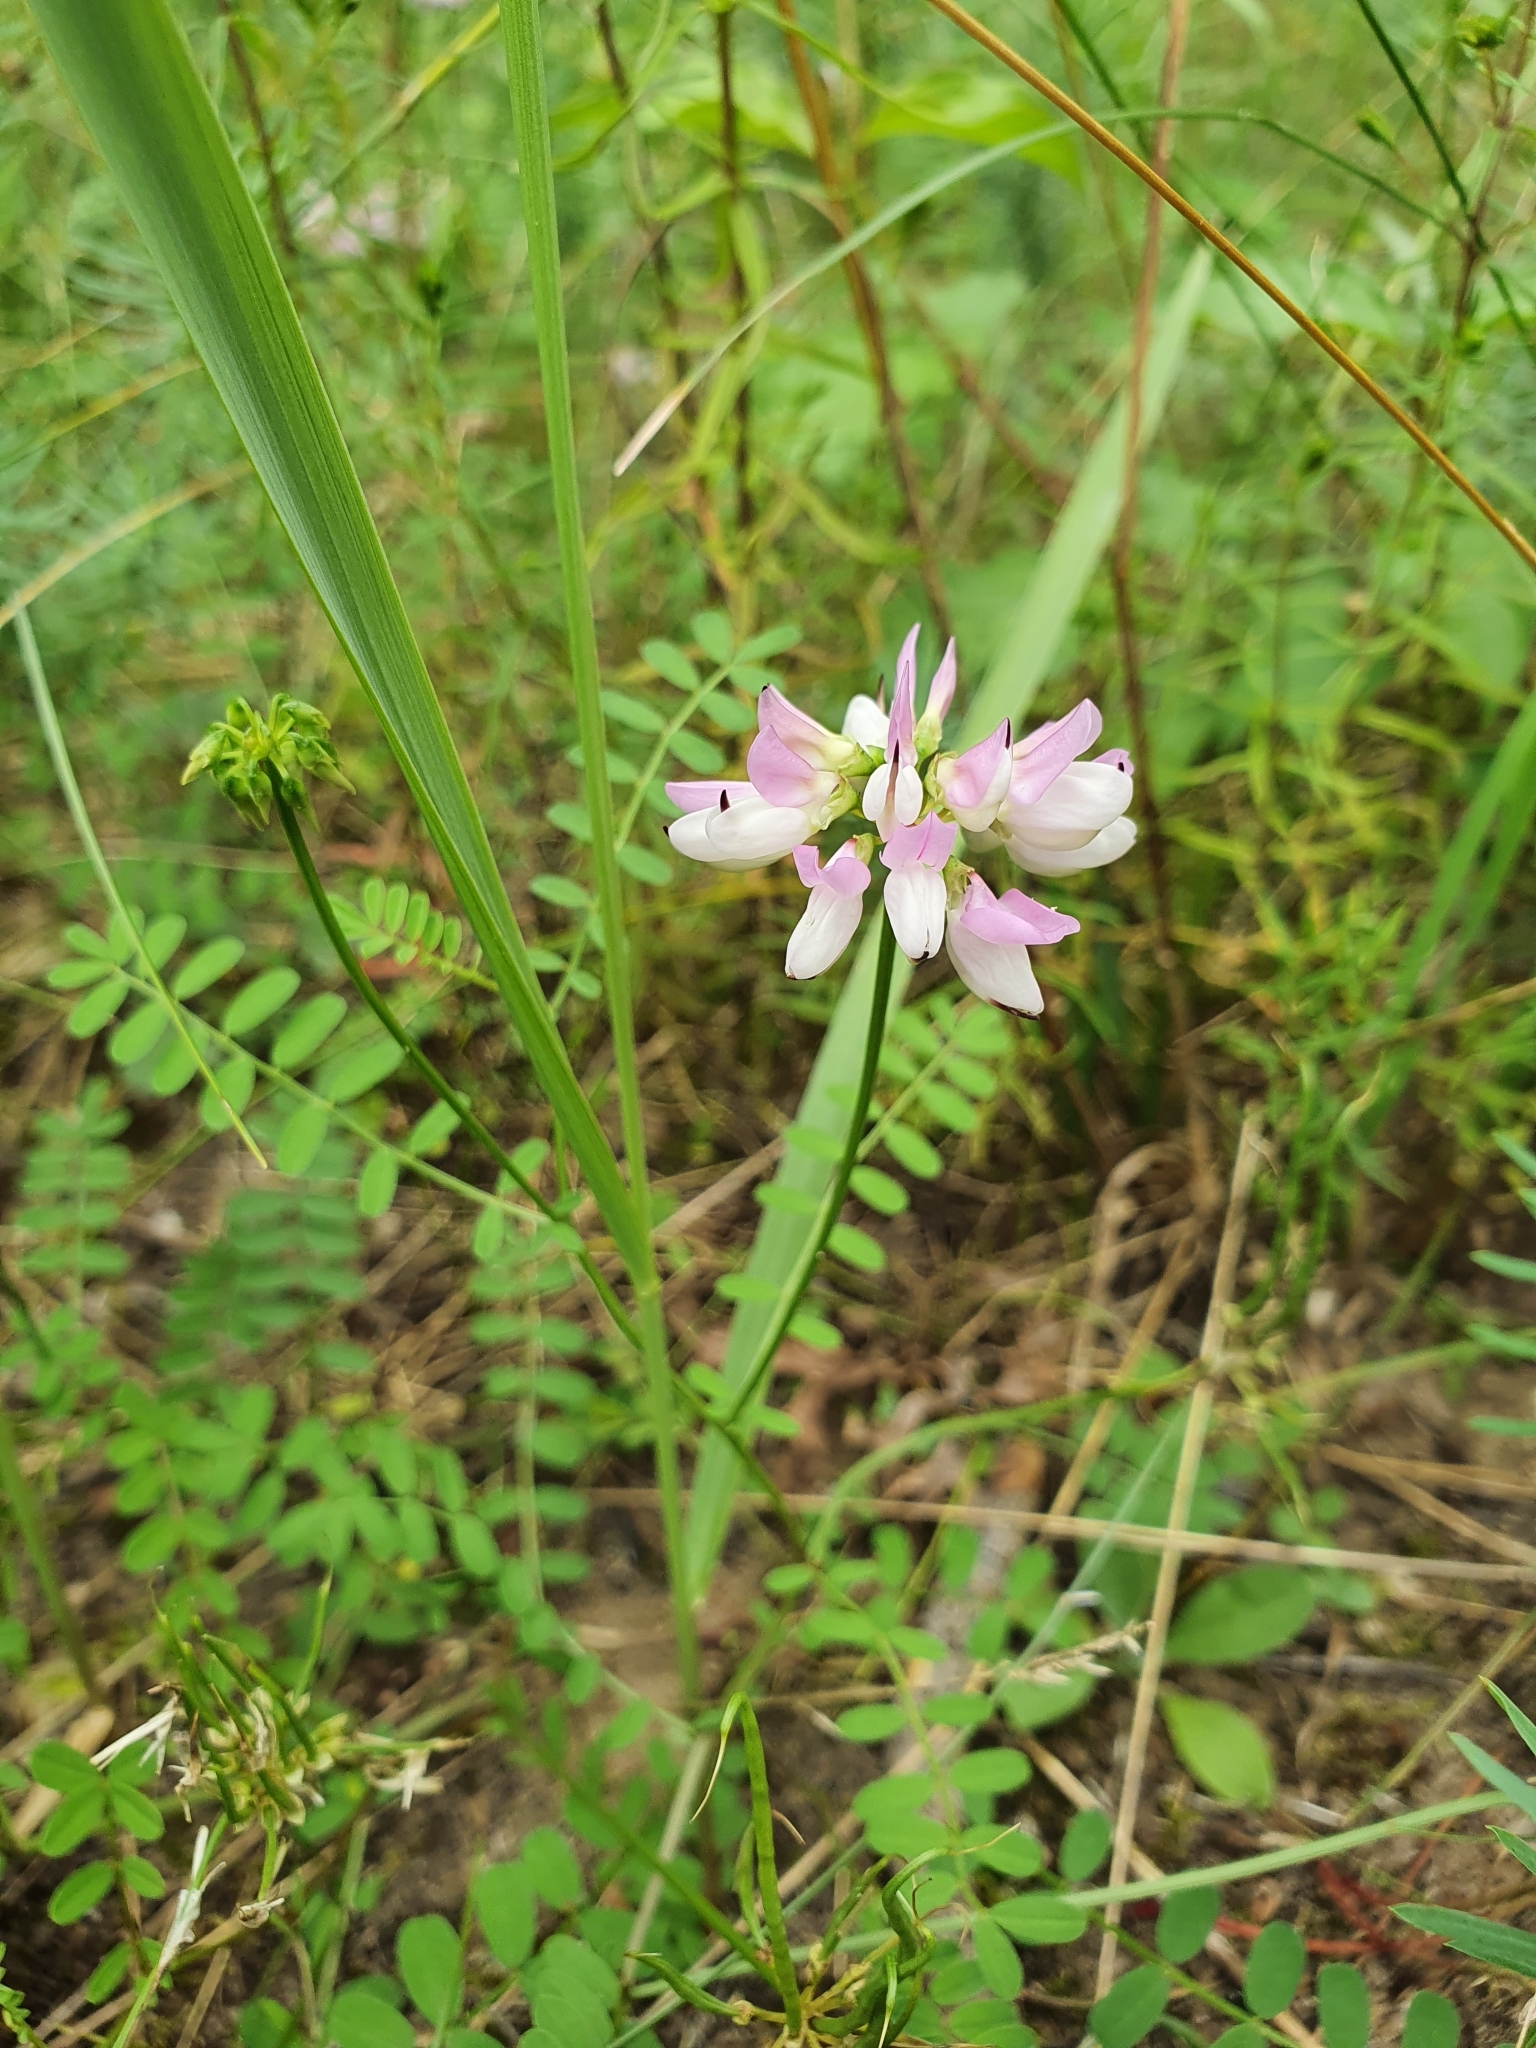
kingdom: Plantae
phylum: Tracheophyta
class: Magnoliopsida
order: Fabales
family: Fabaceae
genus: Coronilla
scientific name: Coronilla varia
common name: Crownvetch
